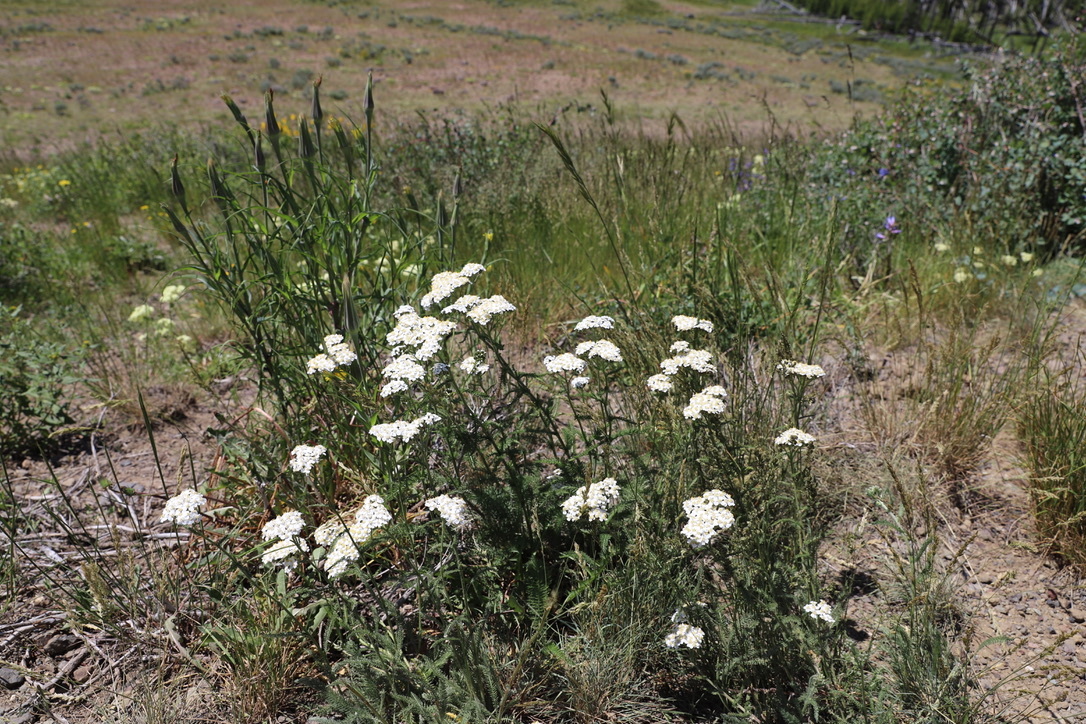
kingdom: Plantae
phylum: Tracheophyta
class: Magnoliopsida
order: Asterales
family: Asteraceae
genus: Achillea
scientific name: Achillea millefolium
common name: Yarrow
